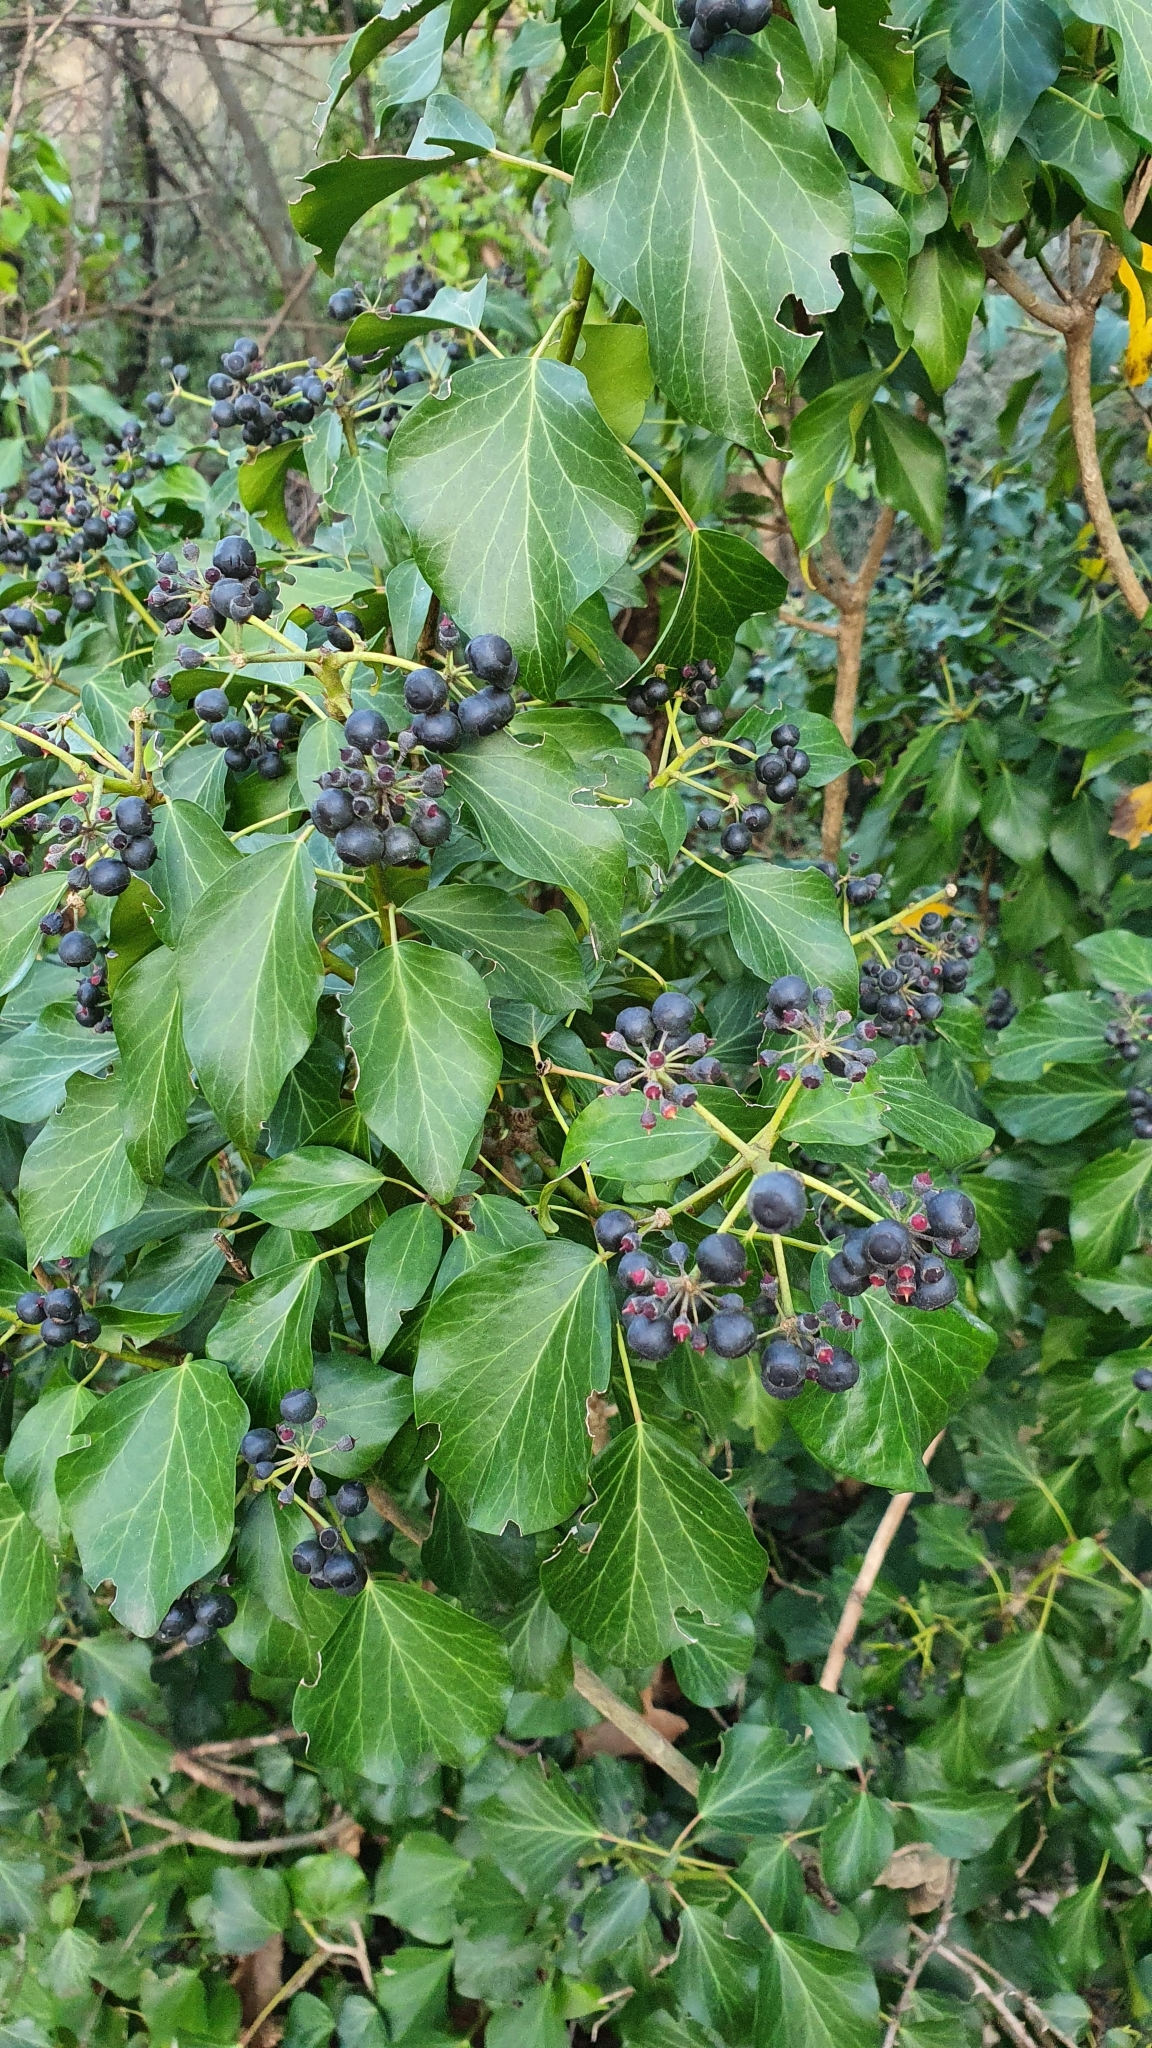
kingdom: Plantae
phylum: Tracheophyta
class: Magnoliopsida
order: Apiales
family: Araliaceae
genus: Hedera
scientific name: Hedera helix
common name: Ivy
